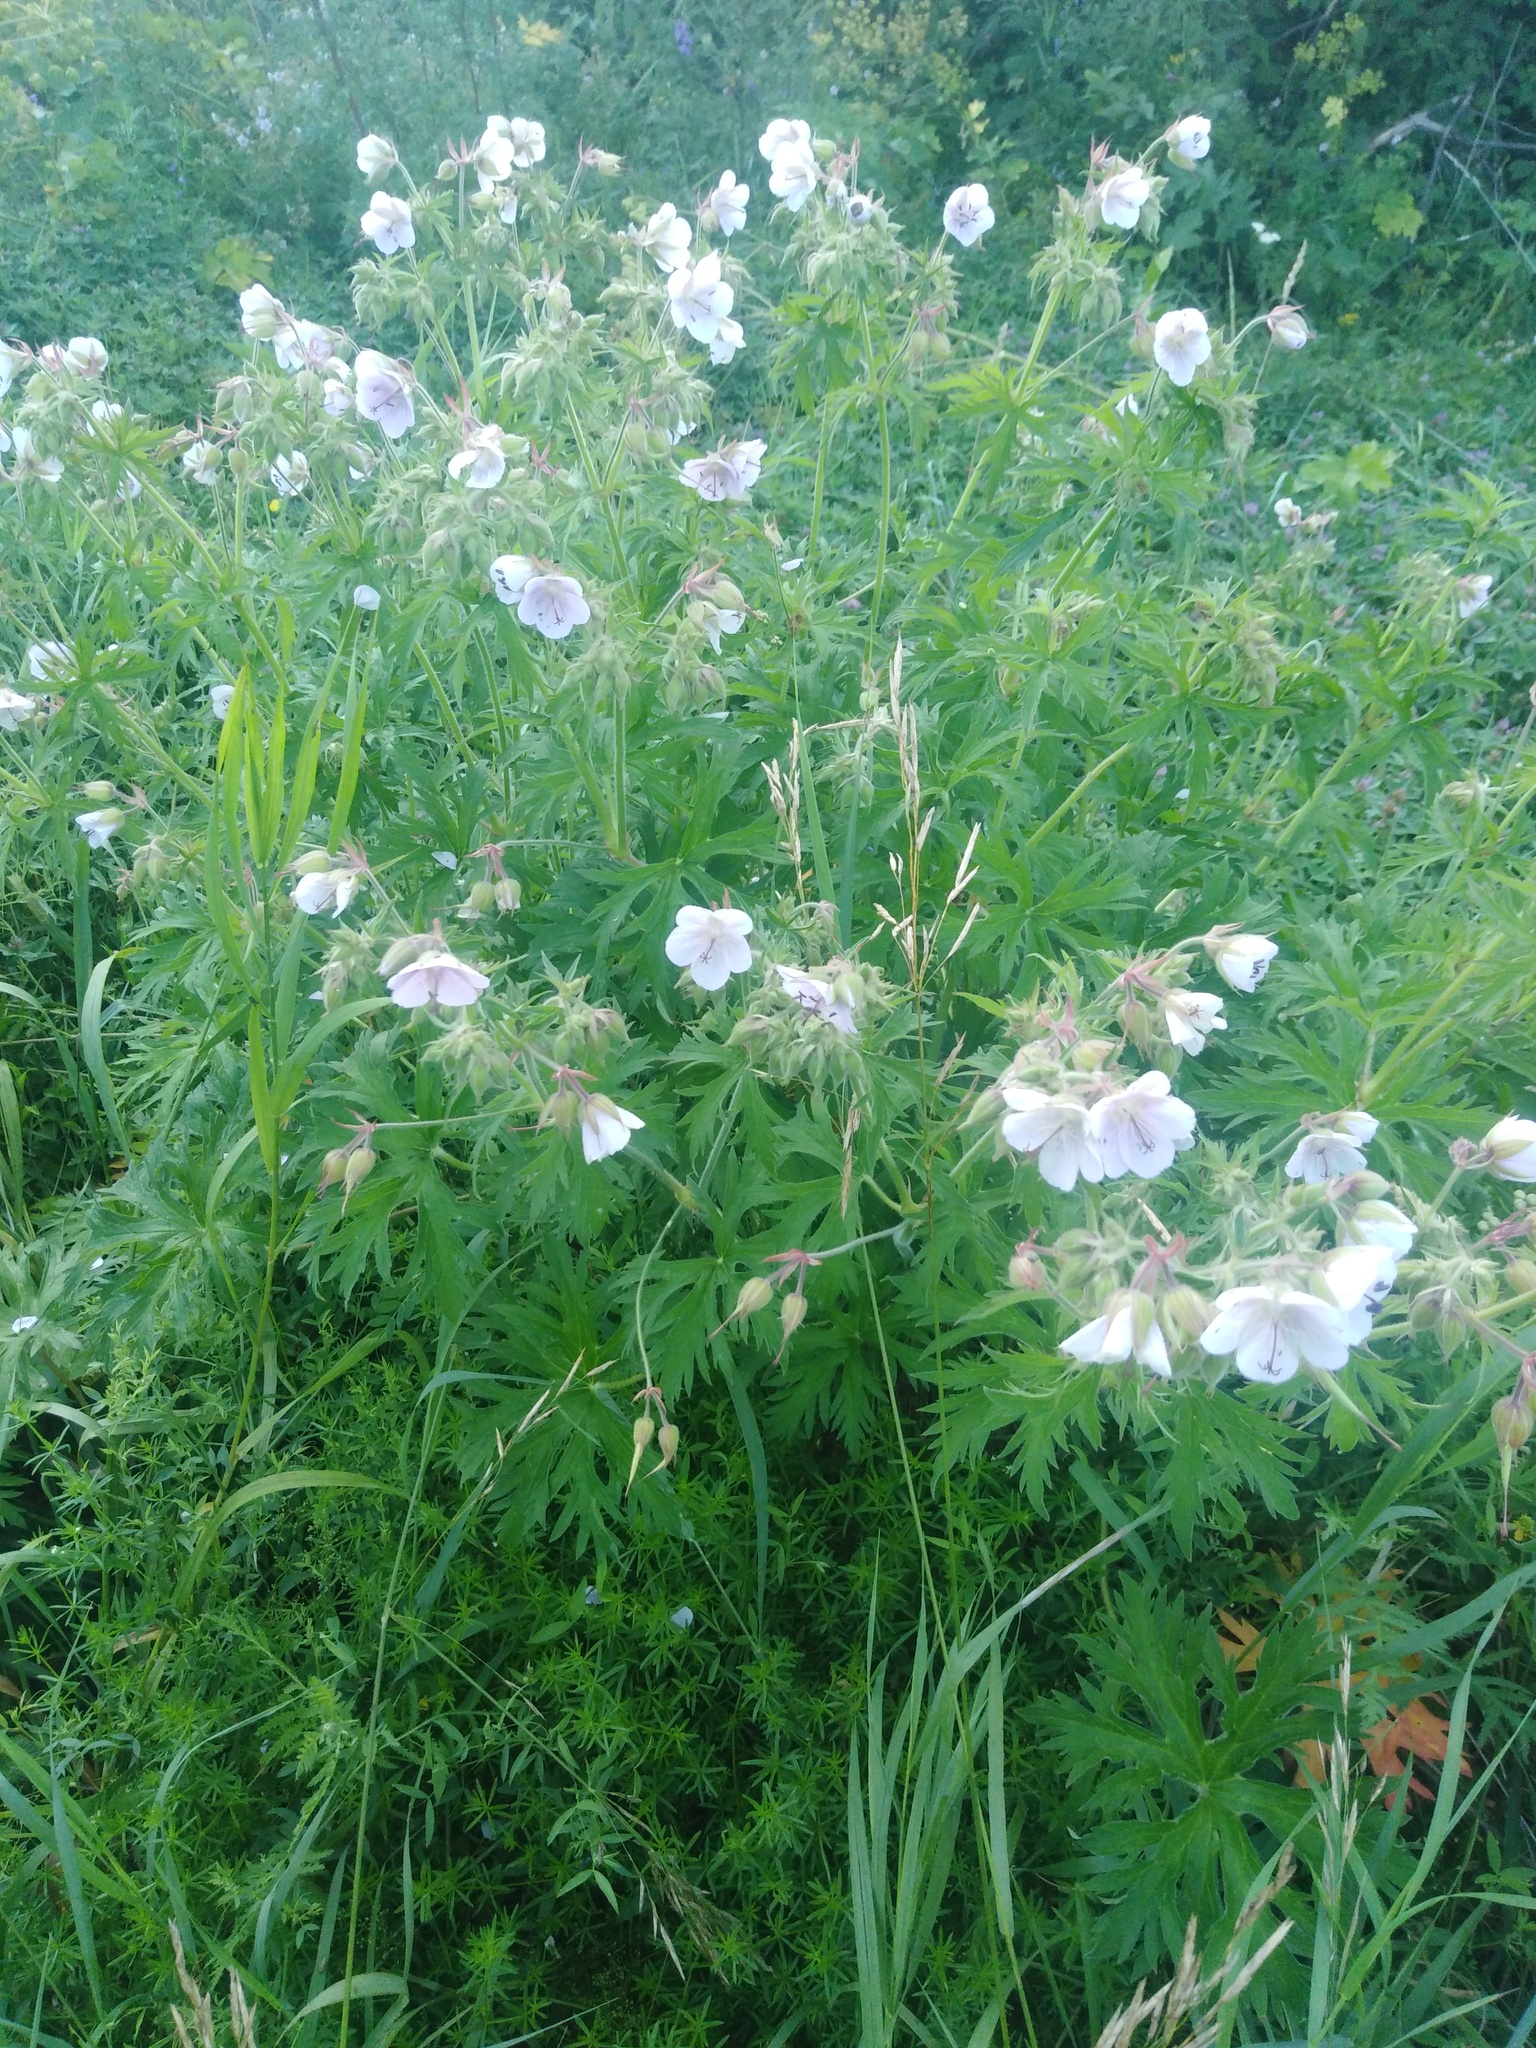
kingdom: Plantae
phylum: Tracheophyta
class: Magnoliopsida
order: Geraniales
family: Geraniaceae
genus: Geranium
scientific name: Geranium pratense
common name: Meadow crane's-bill
